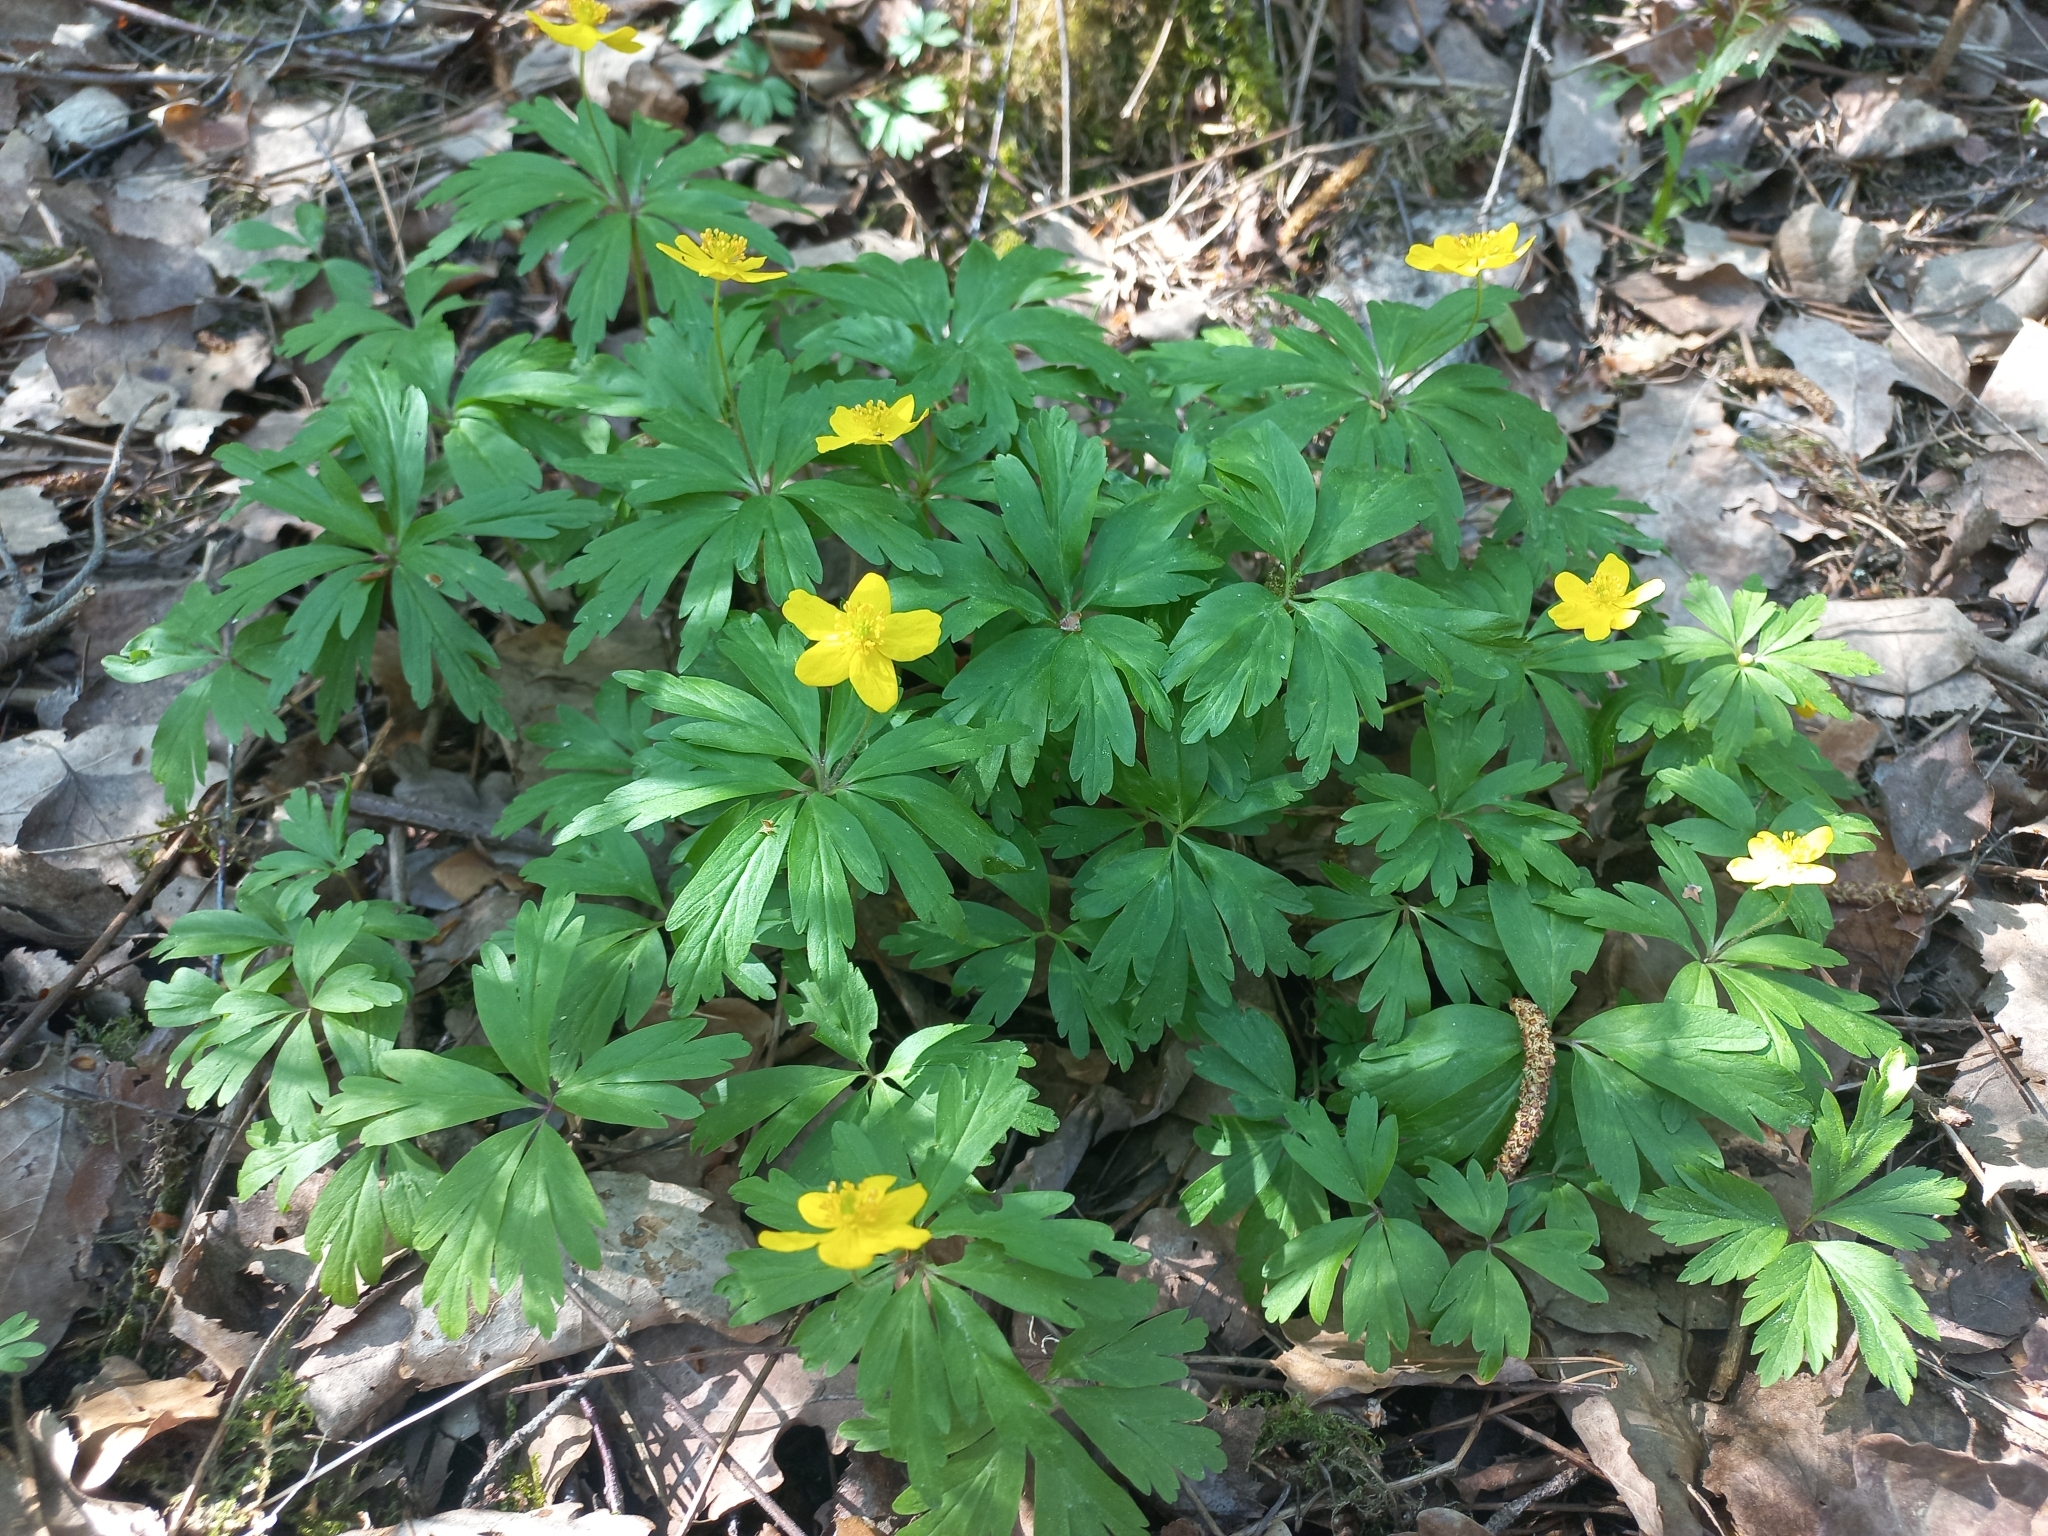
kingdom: Plantae
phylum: Tracheophyta
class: Magnoliopsida
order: Ranunculales
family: Ranunculaceae
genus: Anemone
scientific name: Anemone ranunculoides
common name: Yellow anemone
